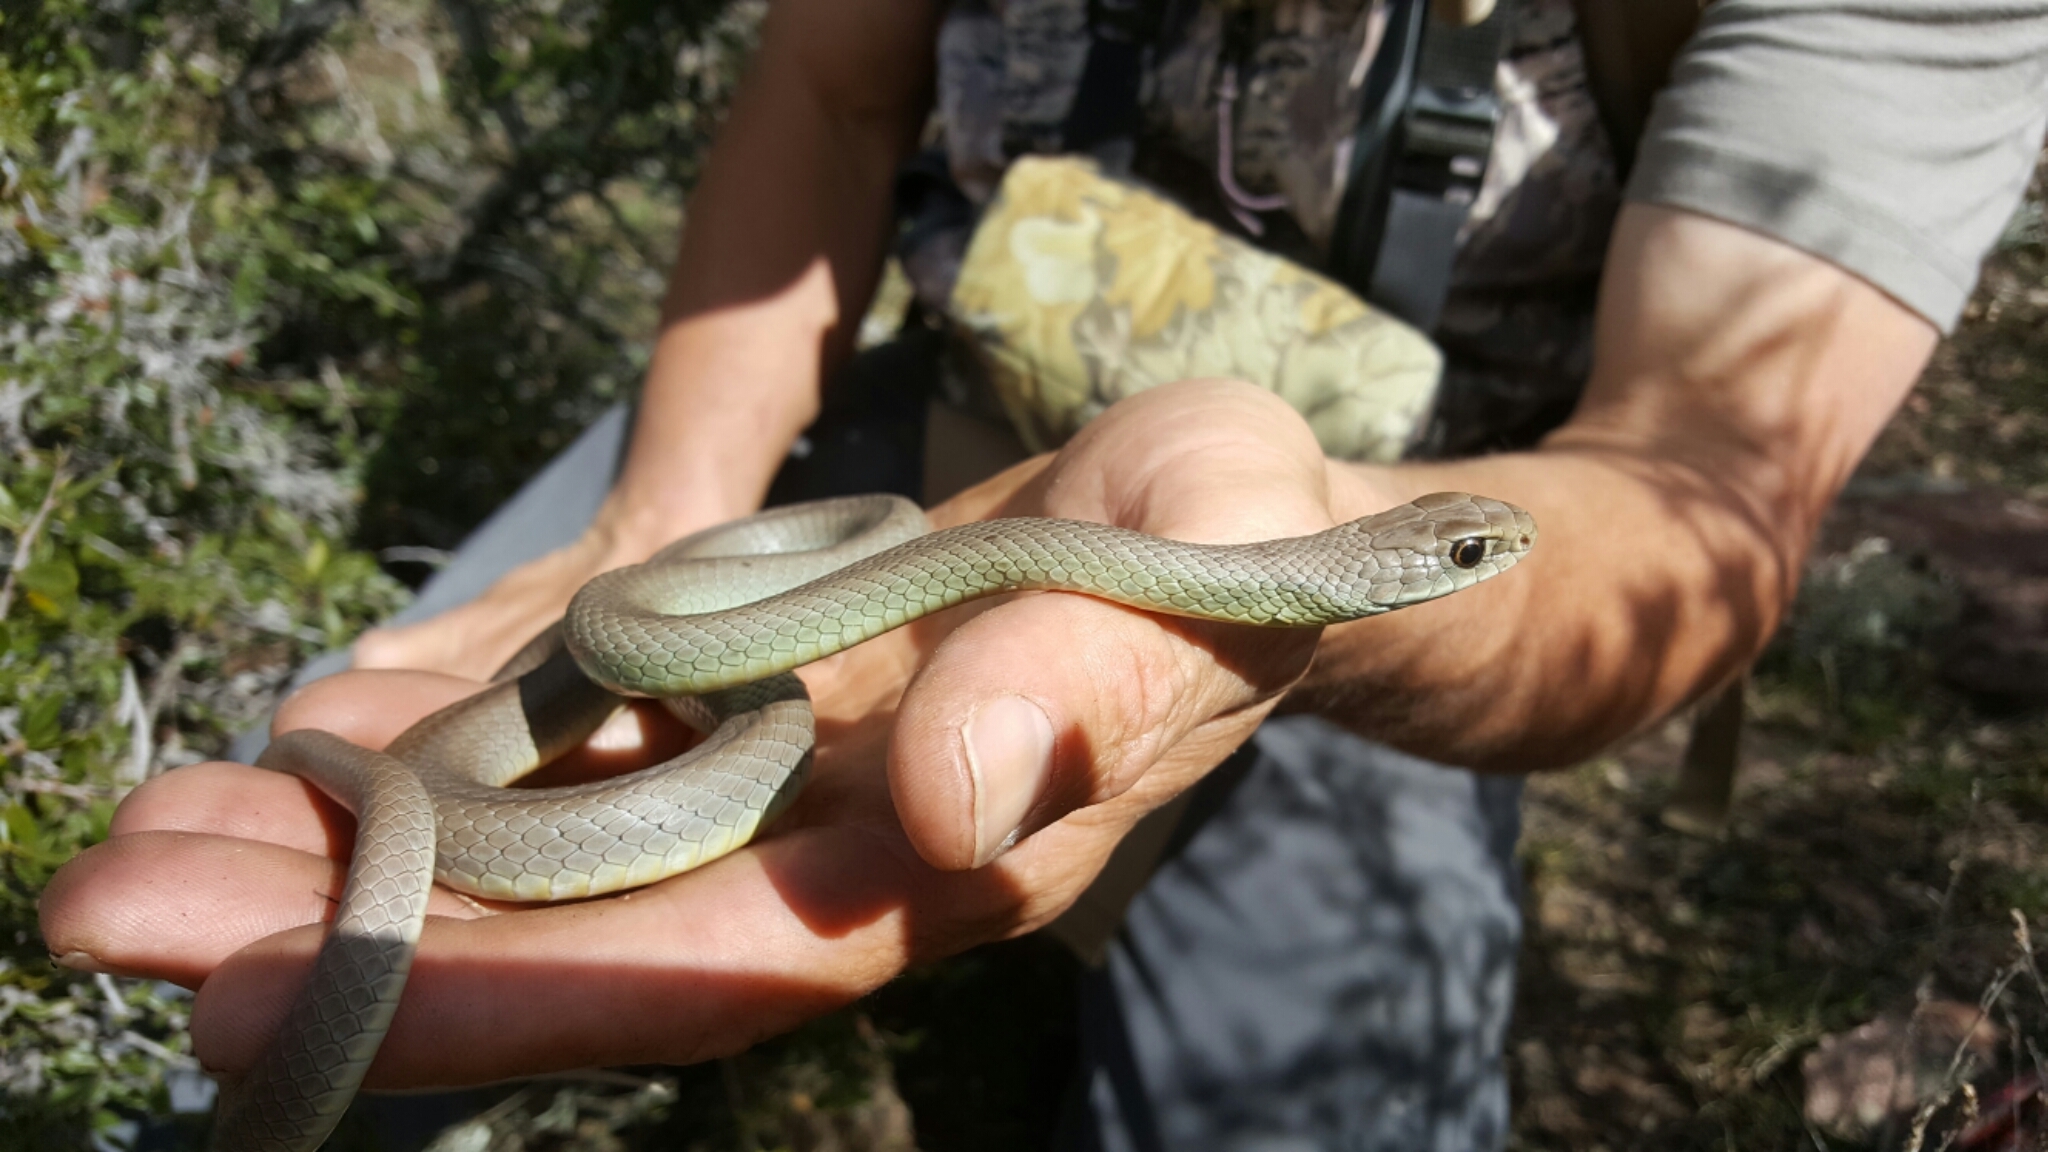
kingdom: Animalia
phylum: Chordata
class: Squamata
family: Colubridae
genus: Coluber
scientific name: Coluber constrictor
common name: Eastern racer
